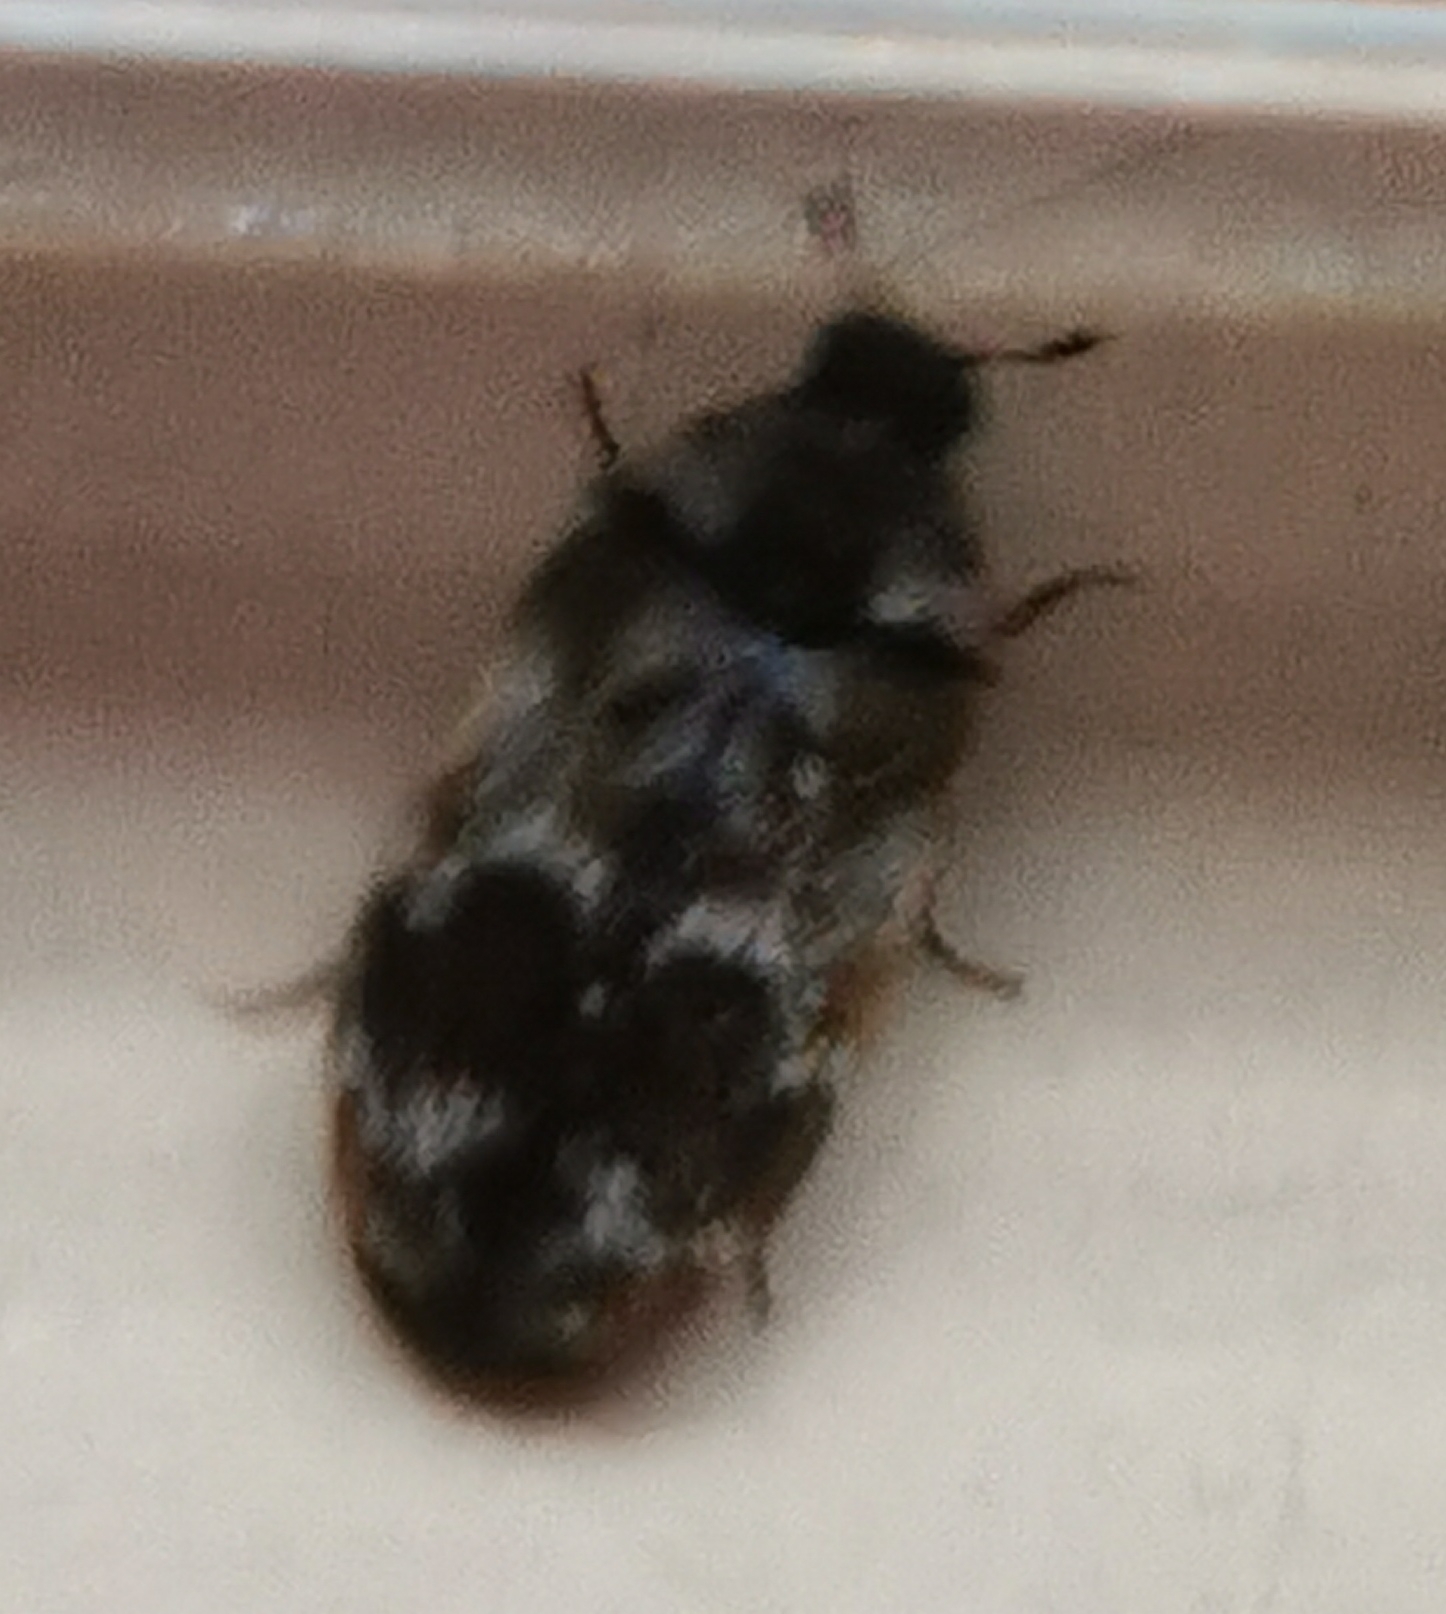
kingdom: Animalia
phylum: Arthropoda
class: Insecta
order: Coleoptera
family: Dermestidae
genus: Trogoderma
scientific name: Trogoderma sternale
